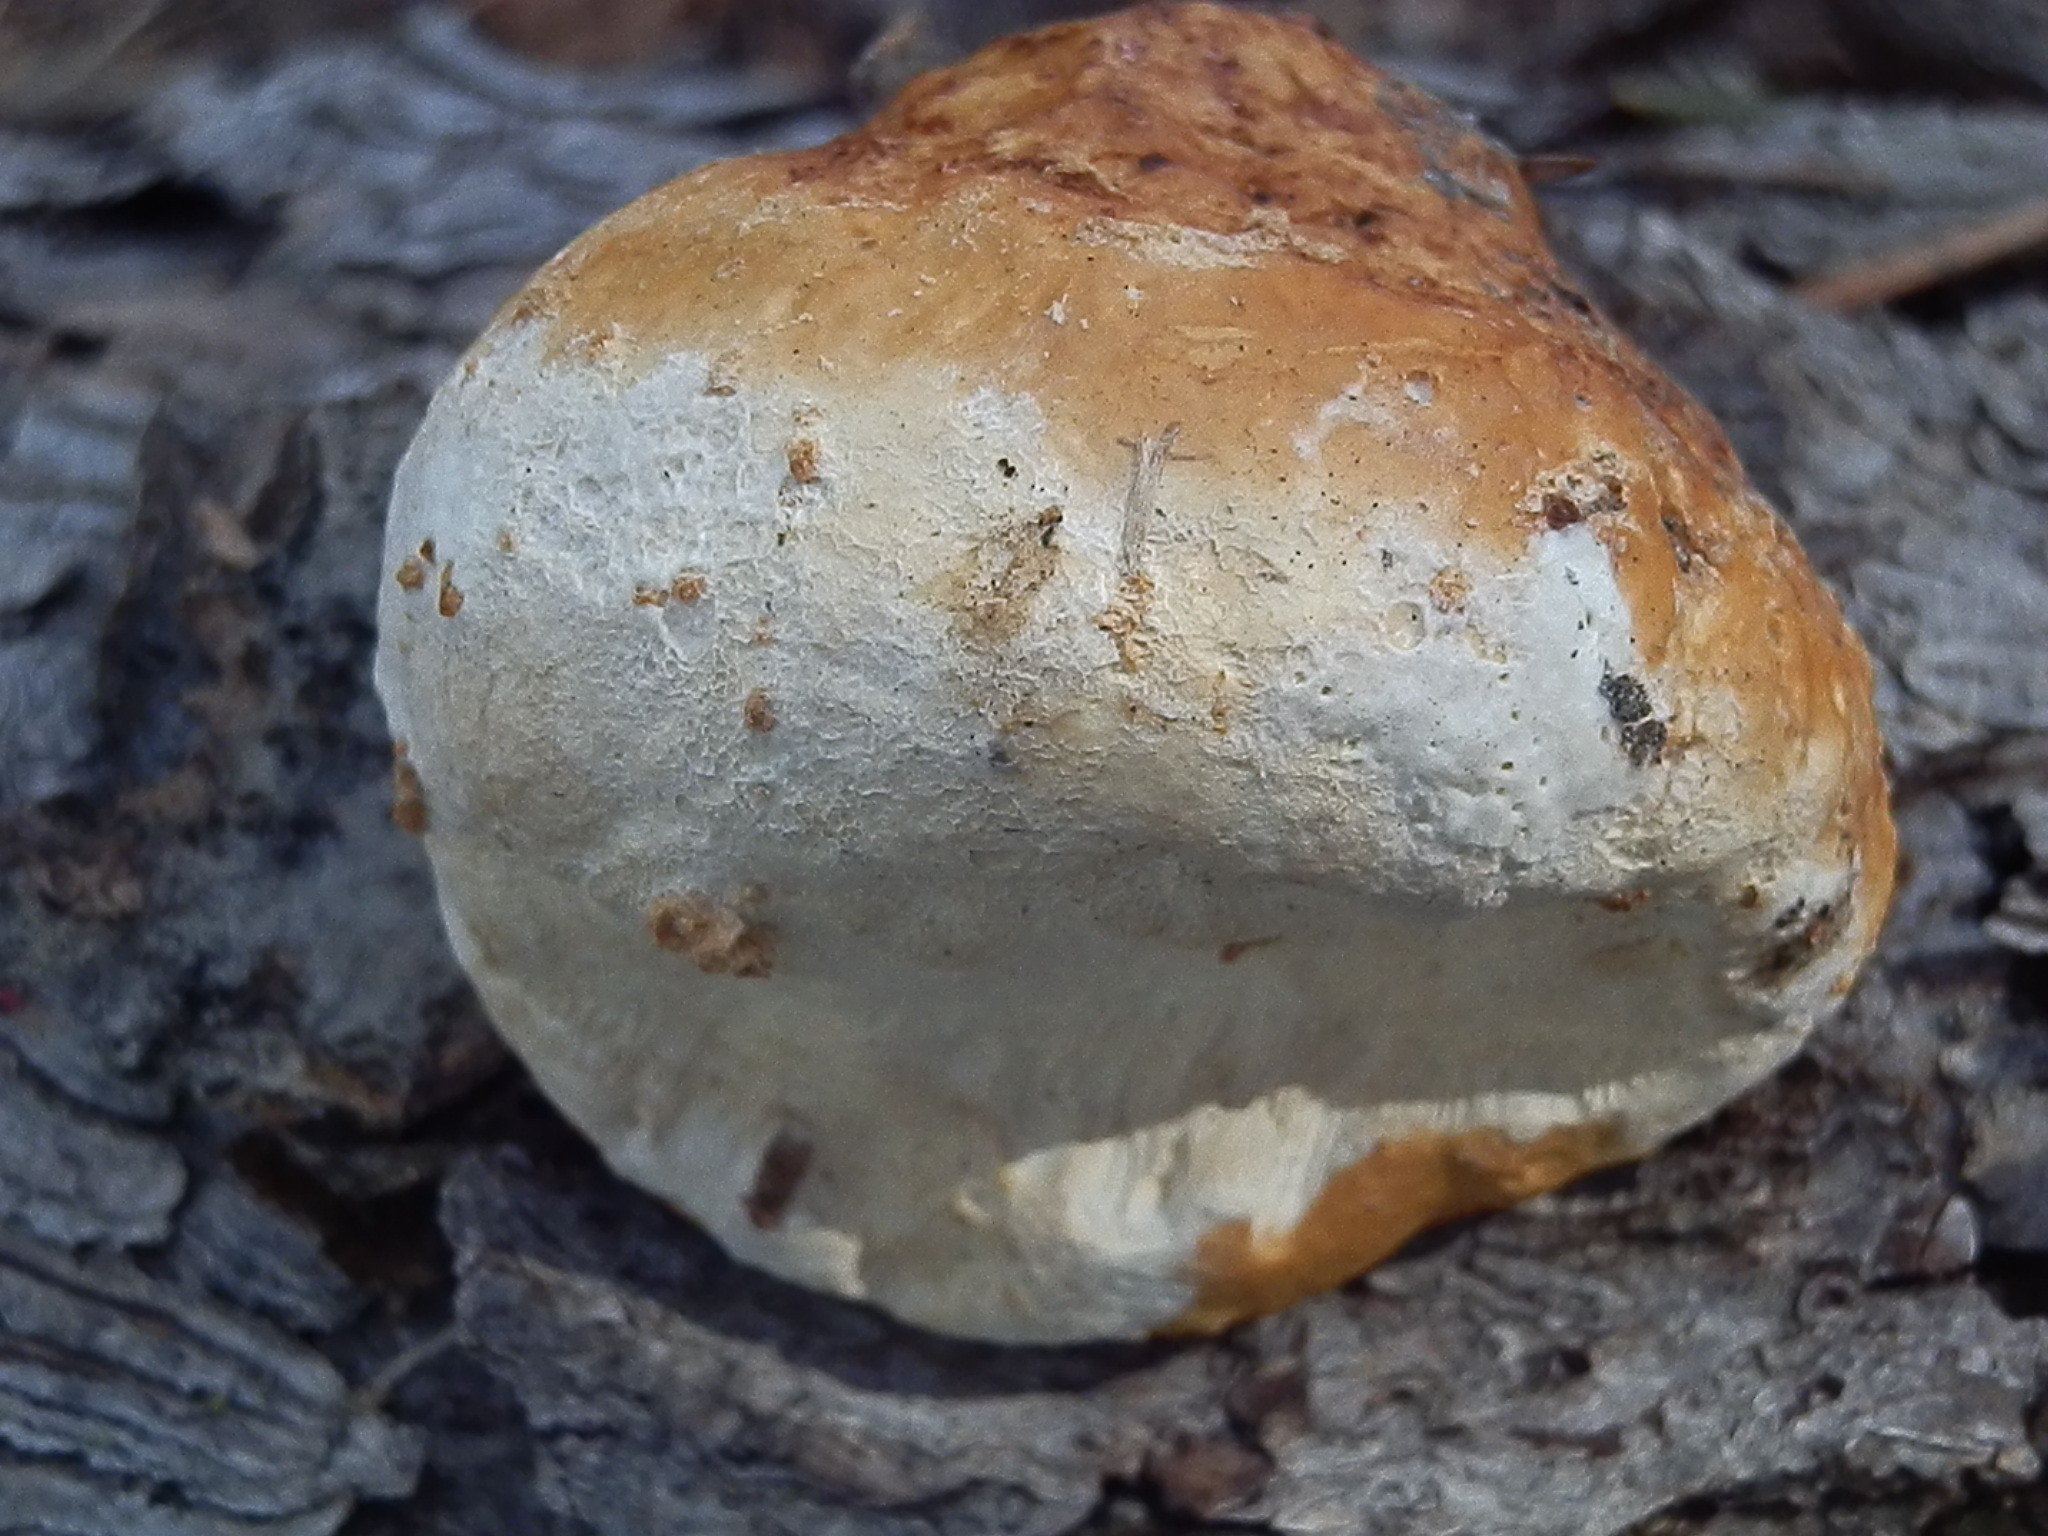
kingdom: Fungi
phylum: Basidiomycota
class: Agaricomycetes
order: Polyporales
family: Fomitopsidaceae
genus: Fomitopsis
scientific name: Fomitopsis schrenkii
